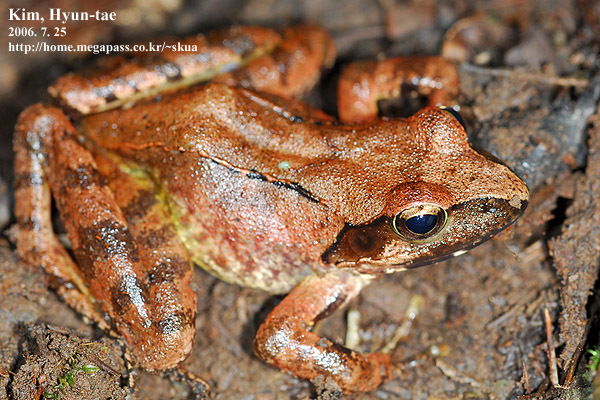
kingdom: Animalia
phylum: Chordata
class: Amphibia
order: Anura
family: Ranidae
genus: Rana
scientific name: Rana uenoi
